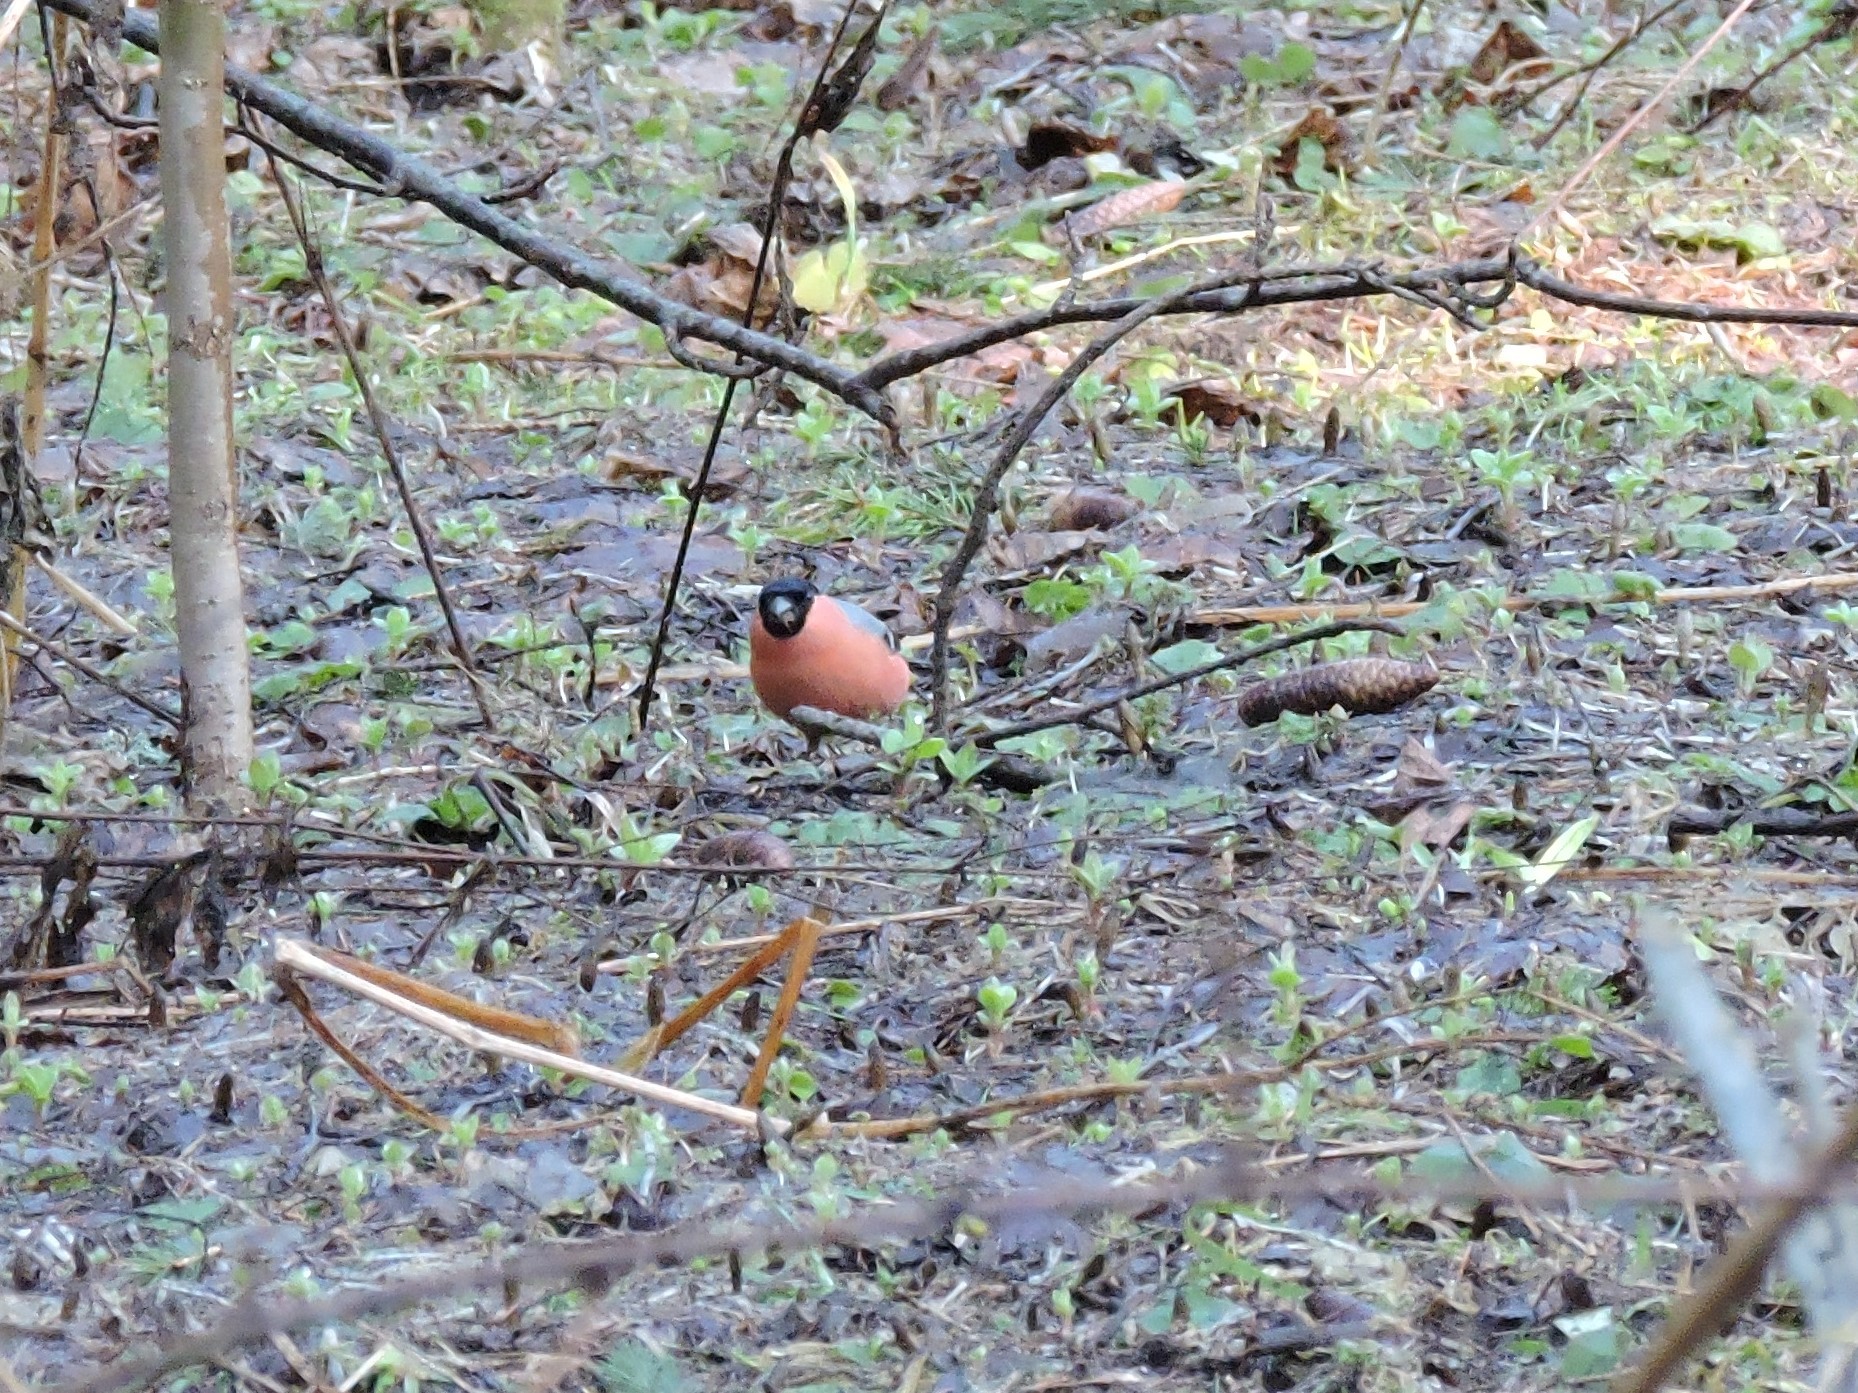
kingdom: Animalia
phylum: Chordata
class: Aves
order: Passeriformes
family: Fringillidae
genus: Pyrrhula
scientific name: Pyrrhula pyrrhula
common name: Eurasian bullfinch
